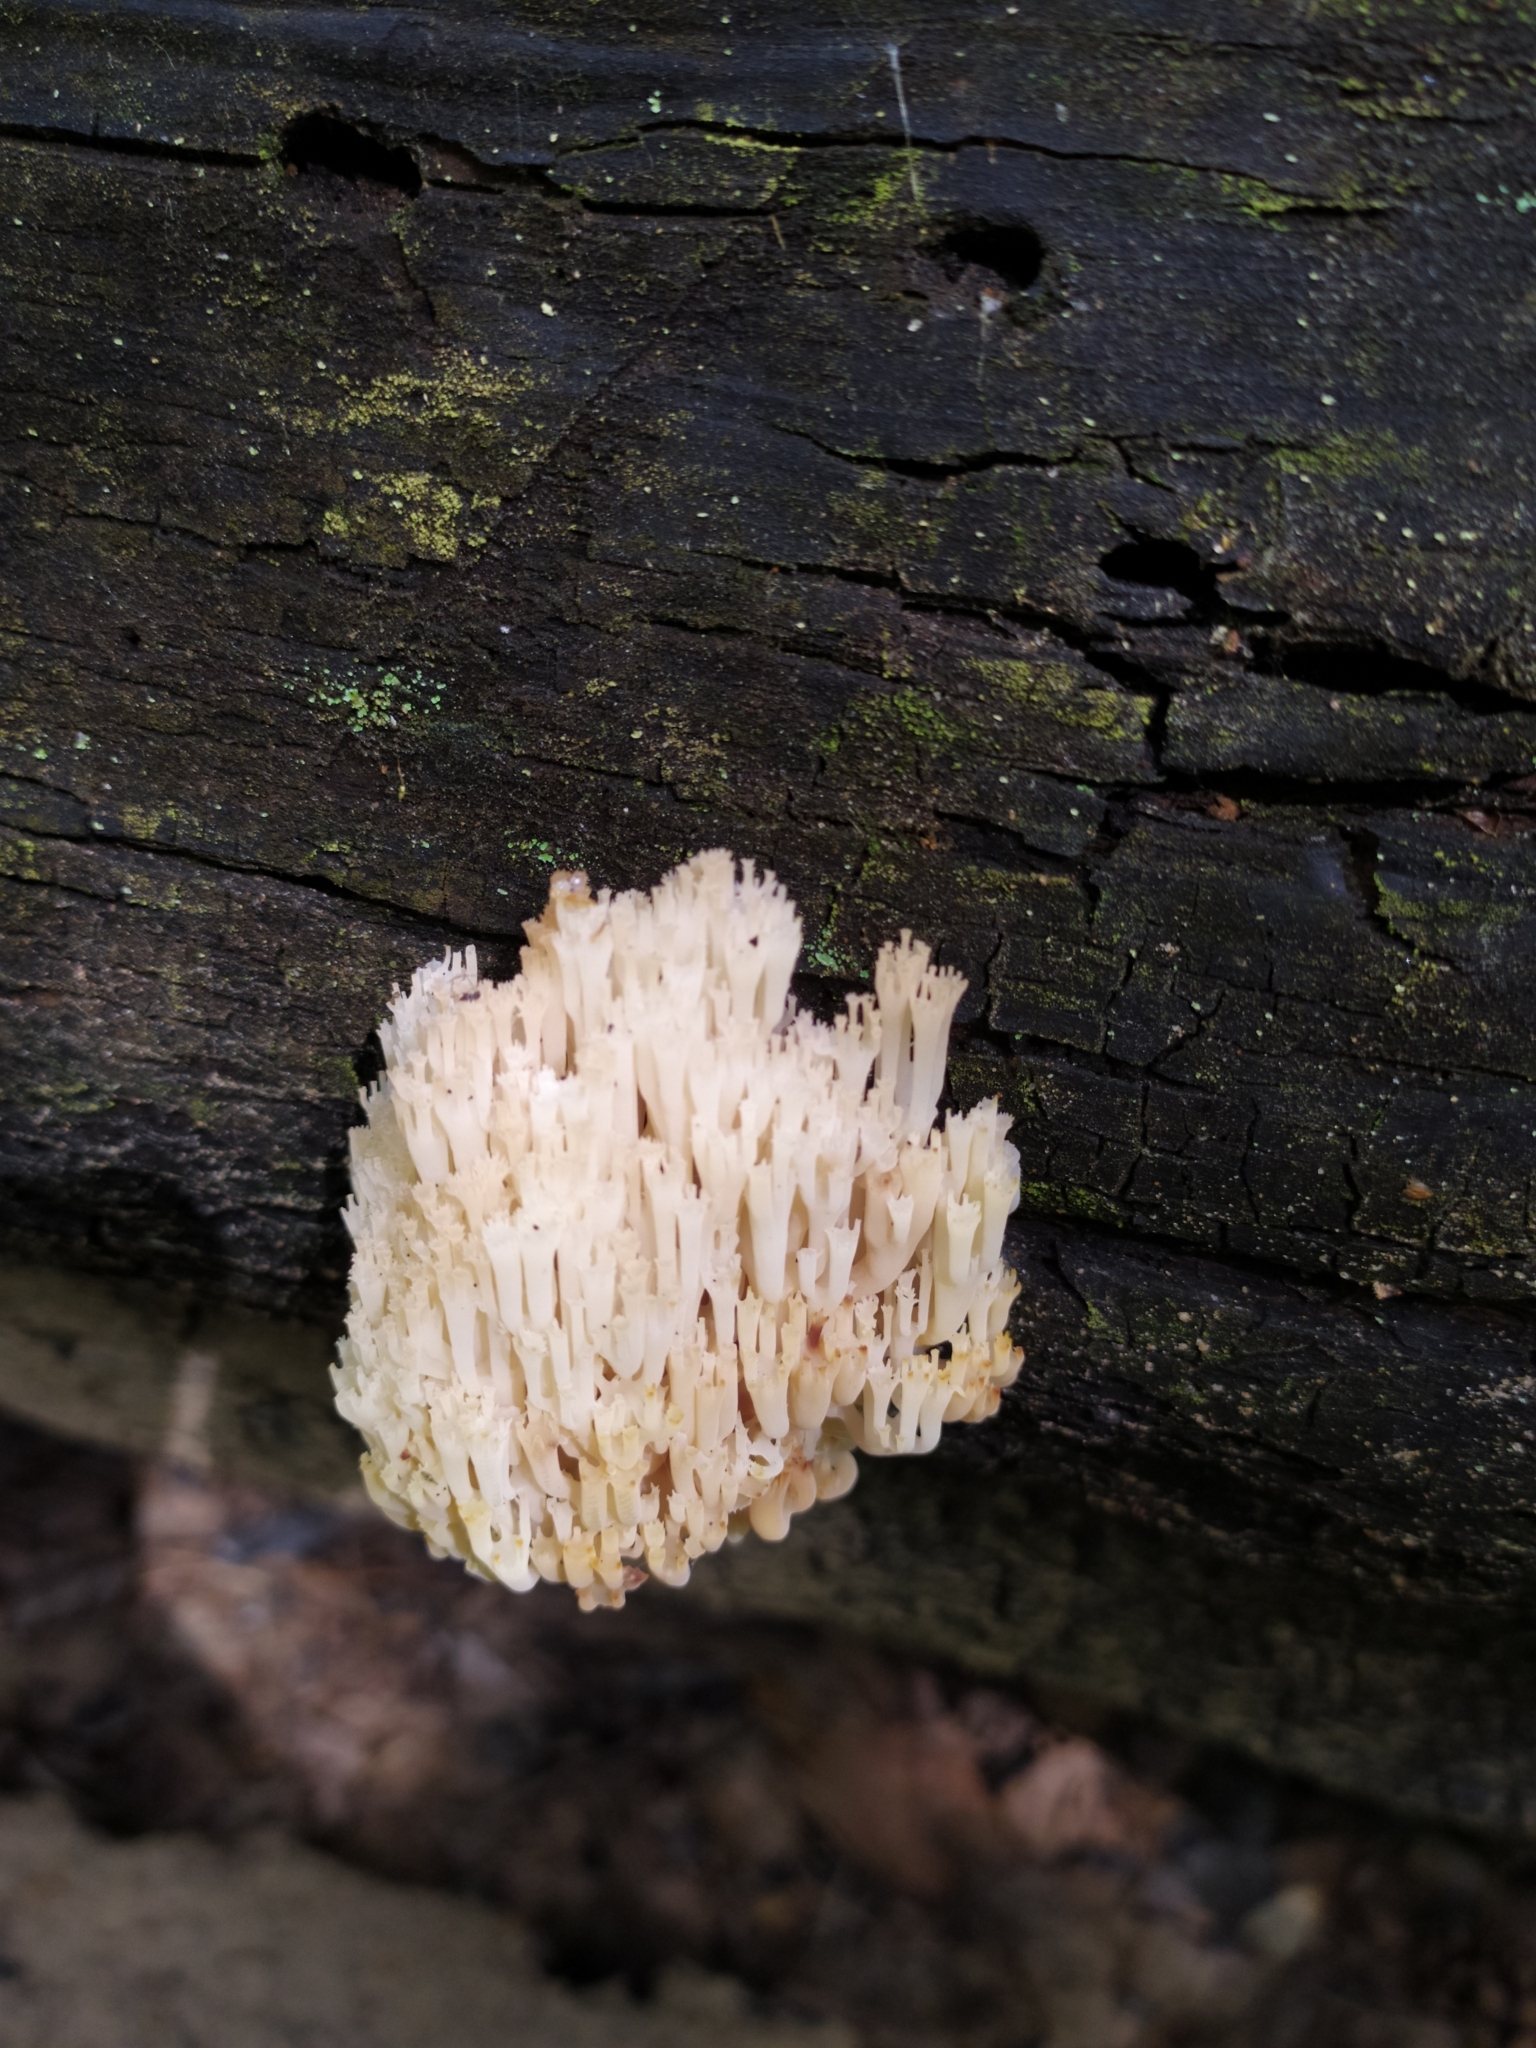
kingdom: Fungi
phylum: Basidiomycota
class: Agaricomycetes
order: Russulales
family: Auriscalpiaceae
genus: Artomyces
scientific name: Artomyces pyxidatus
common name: Crown-tipped coral fungus
